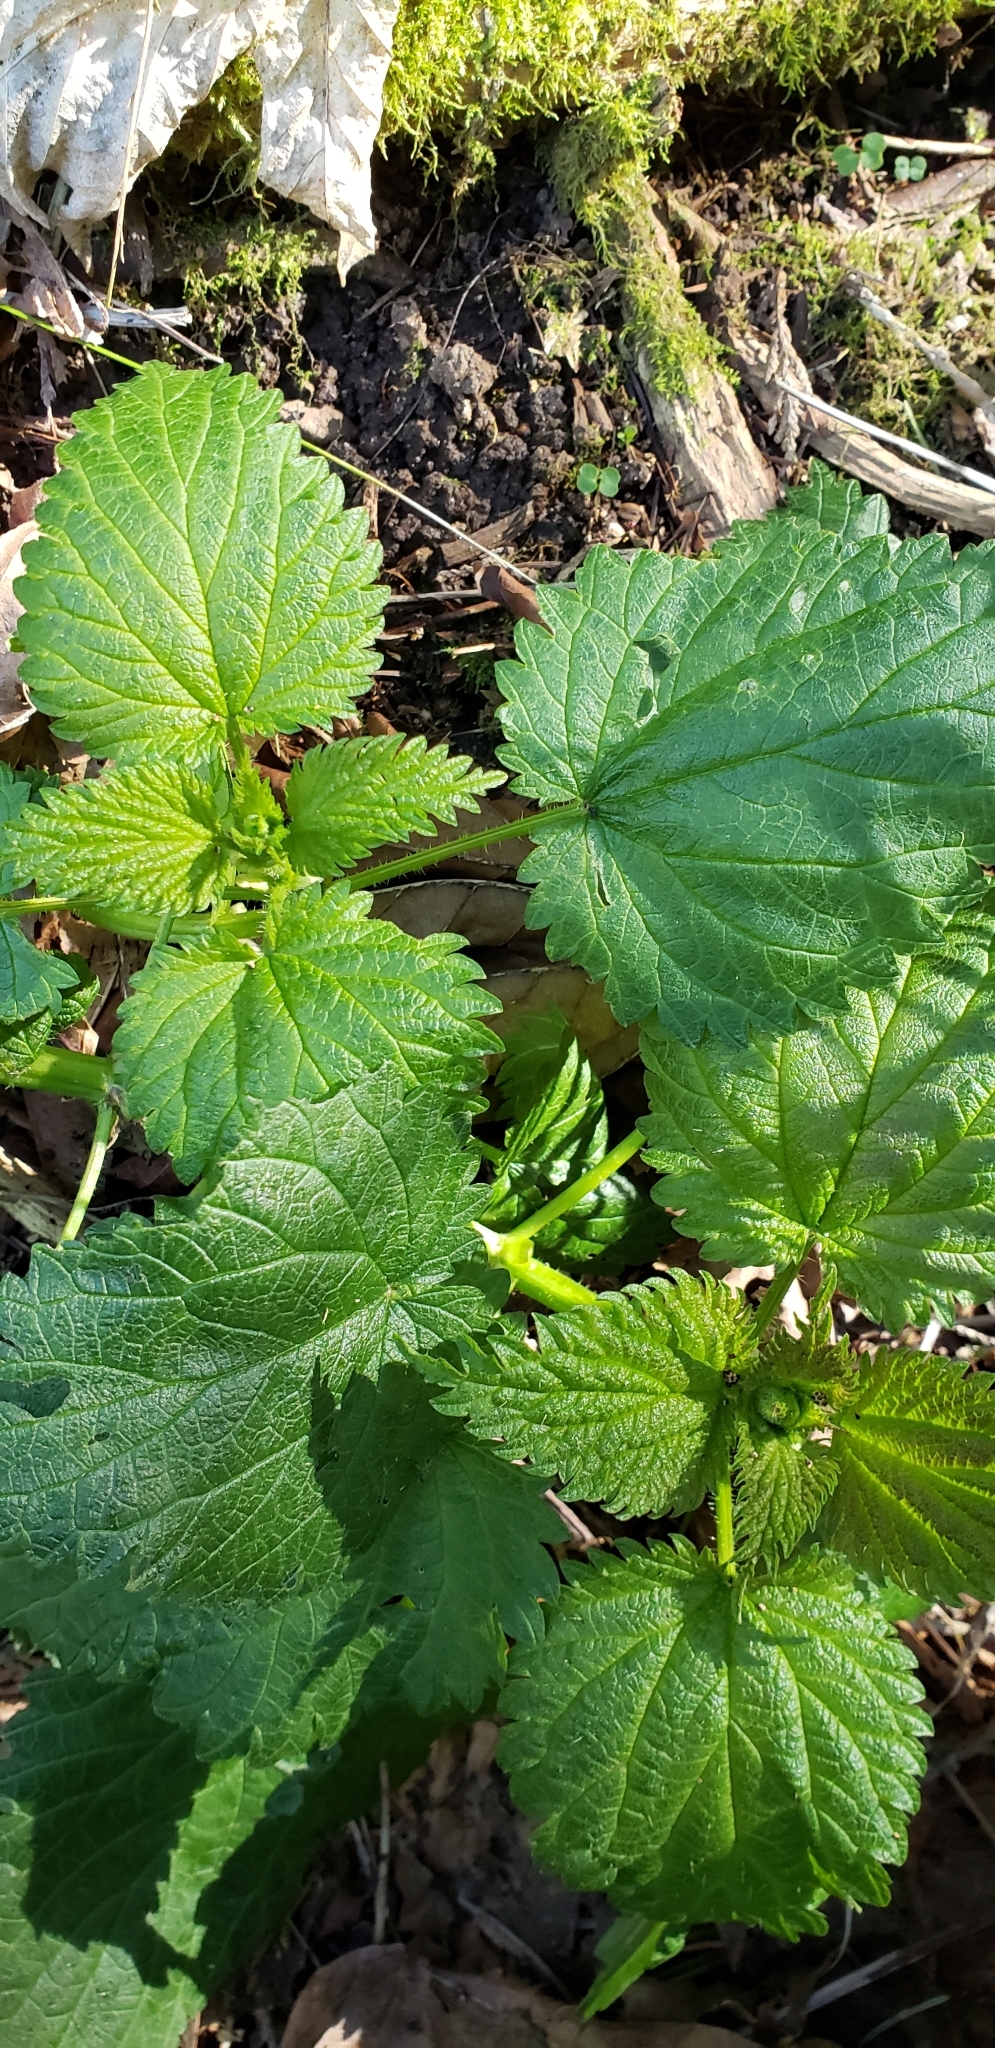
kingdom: Plantae
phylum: Tracheophyta
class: Magnoliopsida
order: Rosales
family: Urticaceae
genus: Urtica
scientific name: Urtica dioica
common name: Common nettle
